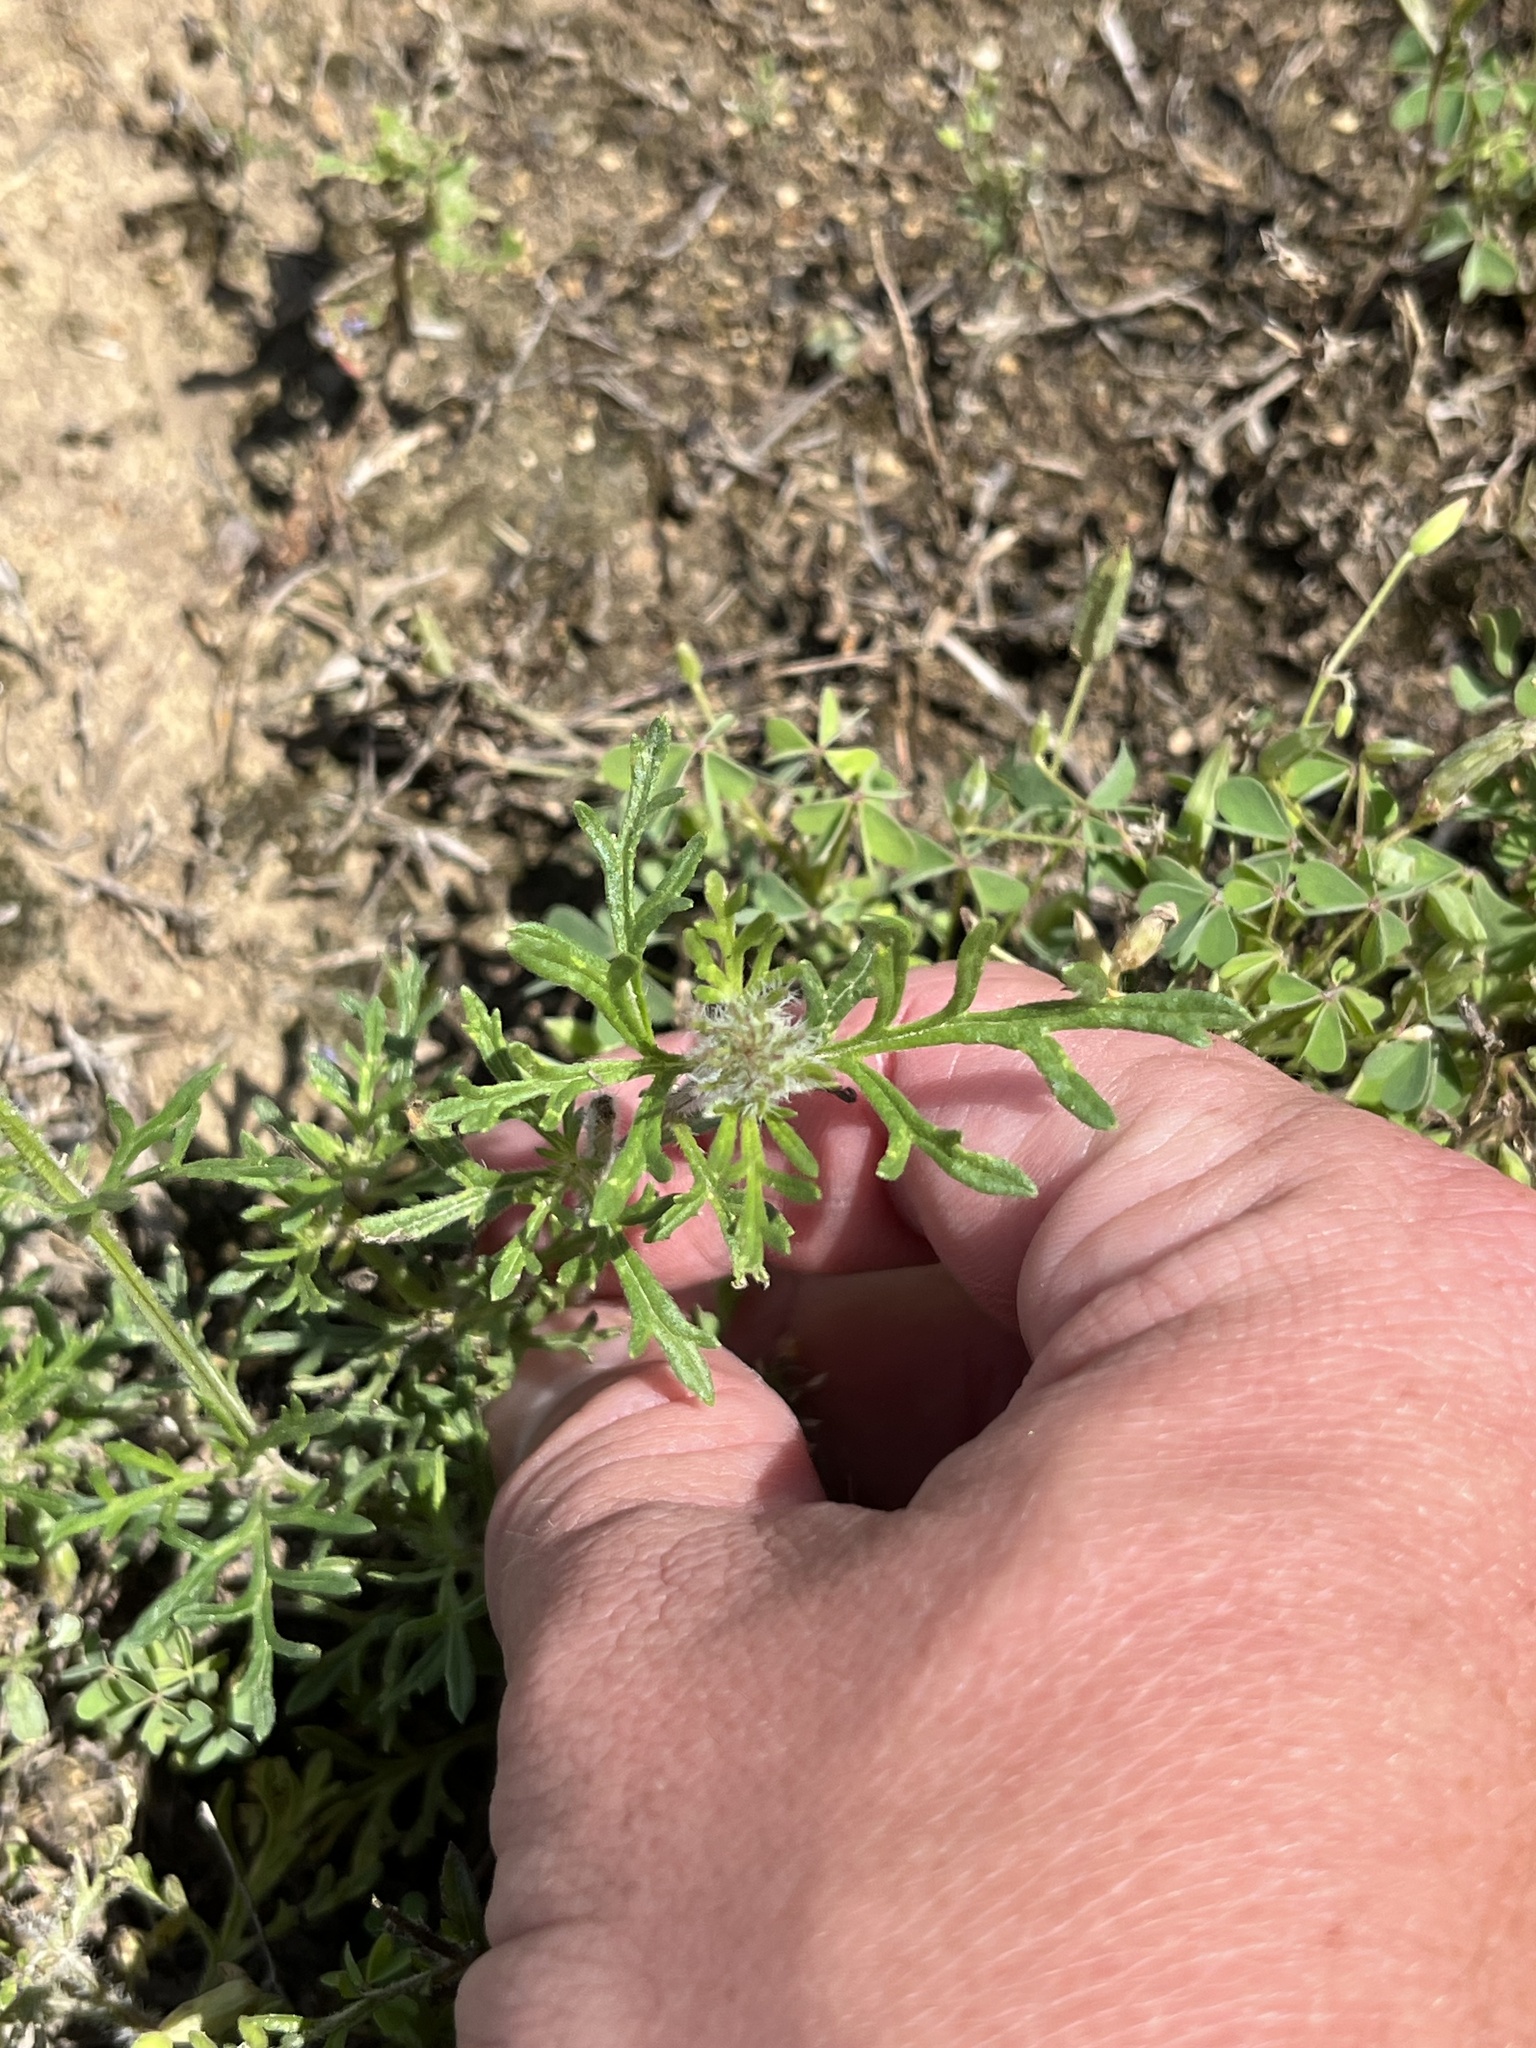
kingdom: Plantae
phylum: Tracheophyta
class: Magnoliopsida
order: Lamiales
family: Verbenaceae
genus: Verbena
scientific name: Verbena bipinnatifida
